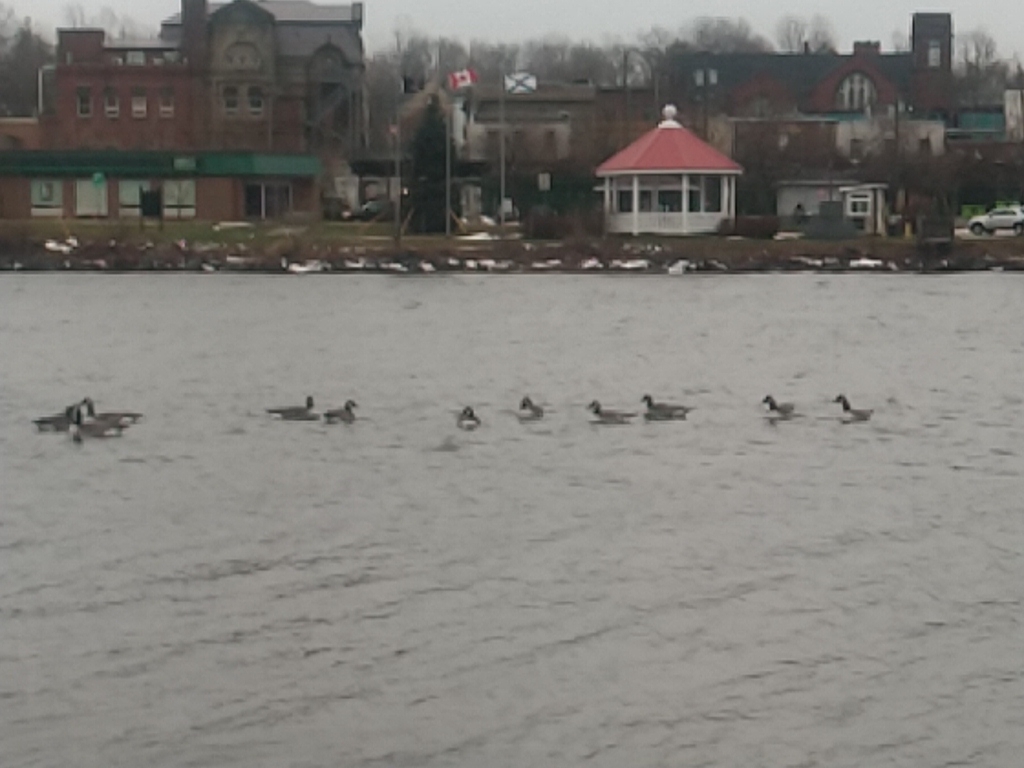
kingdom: Animalia
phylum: Chordata
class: Aves
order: Anseriformes
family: Anatidae
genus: Branta
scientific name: Branta canadensis
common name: Canada goose
